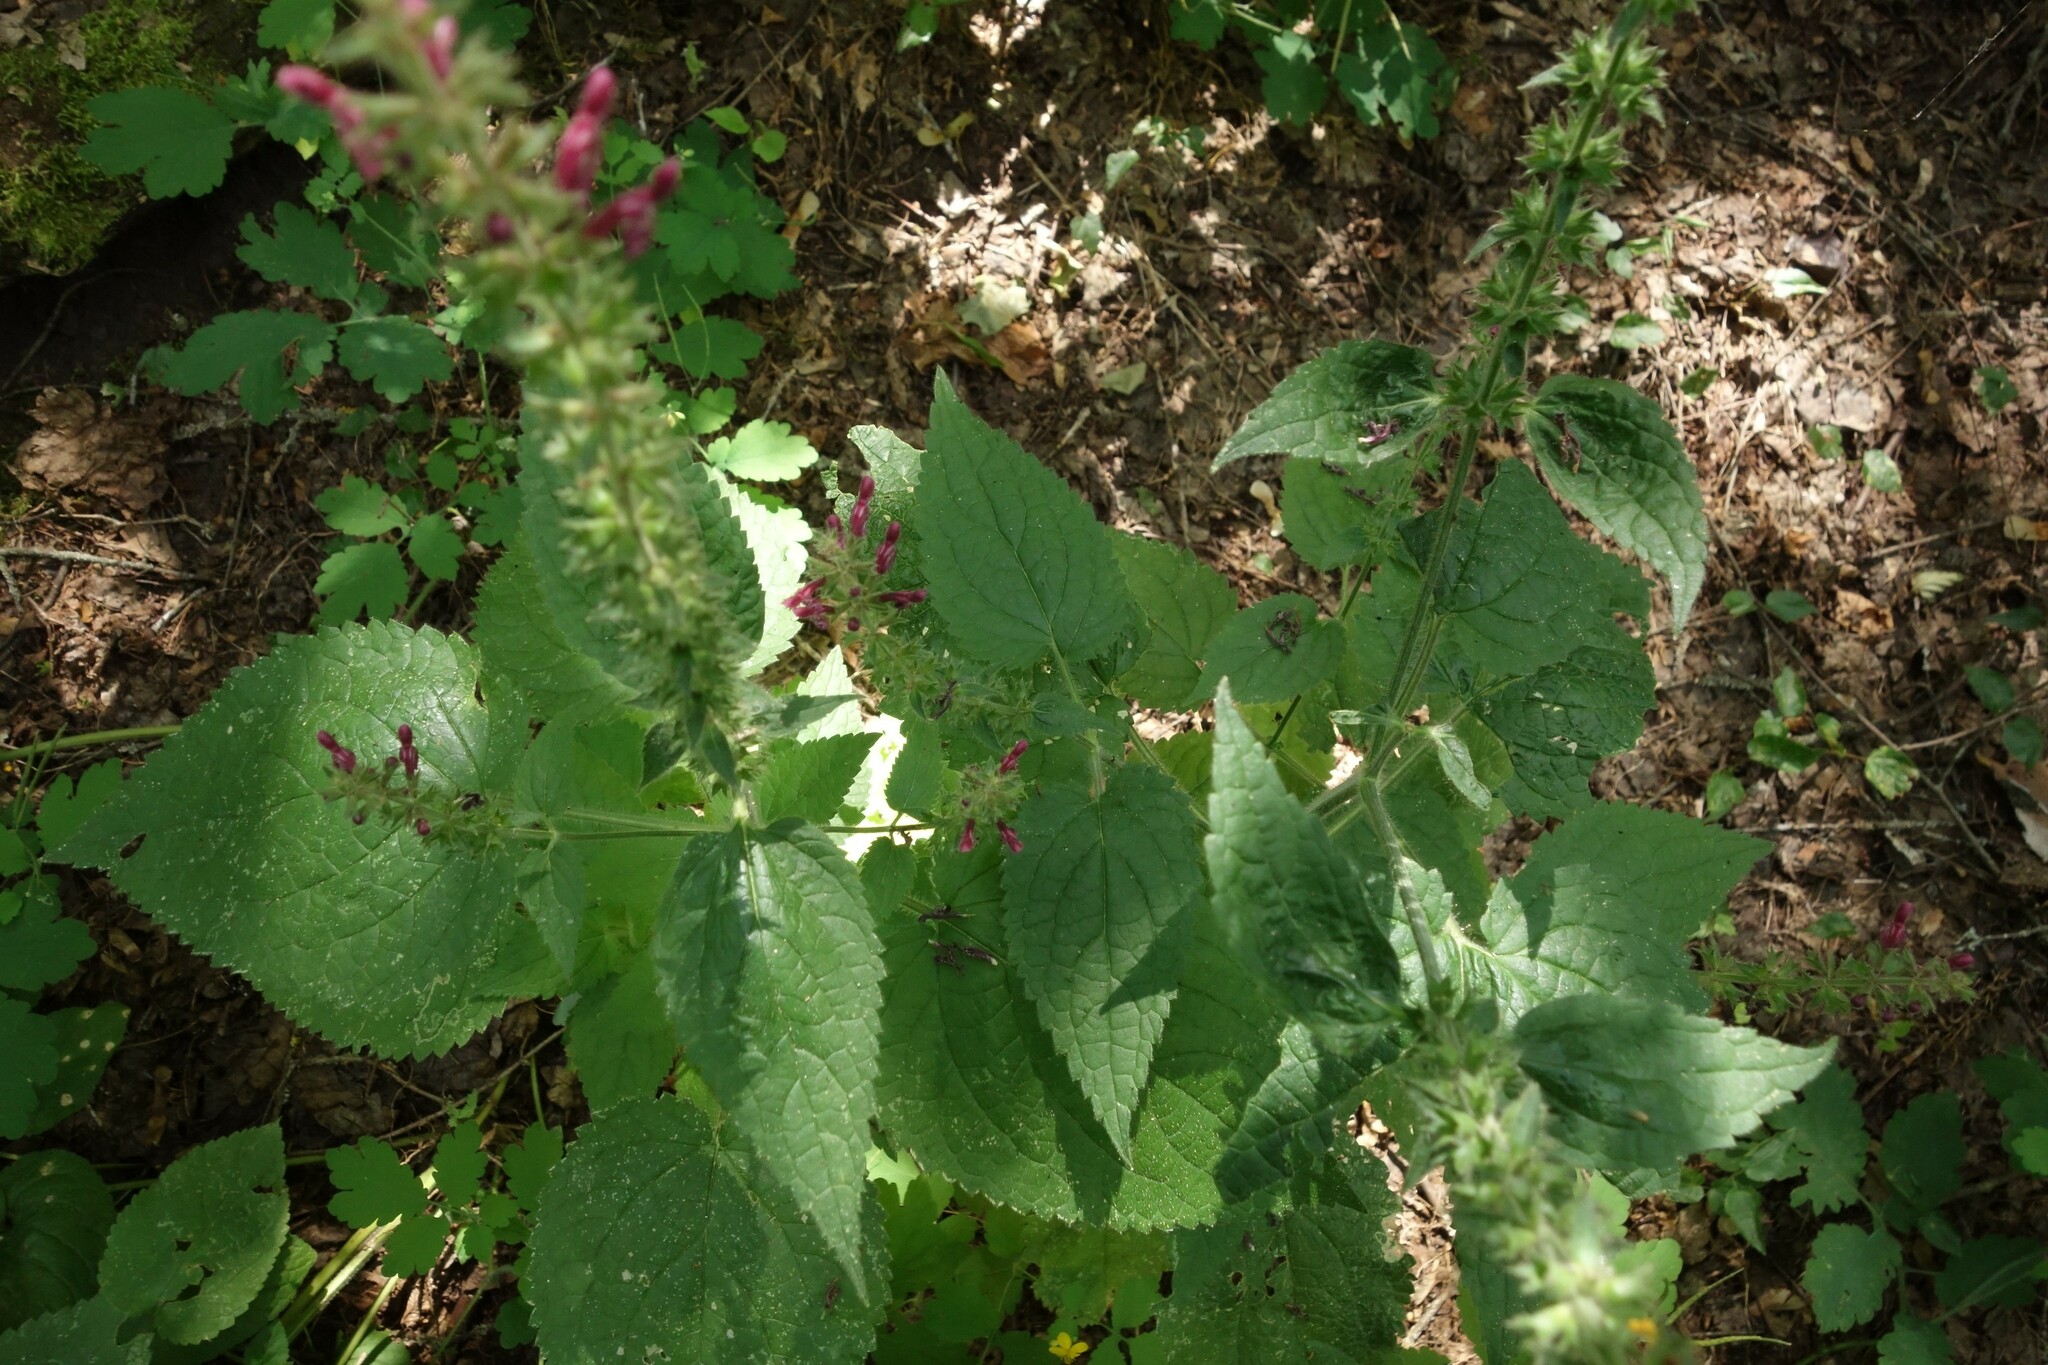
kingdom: Plantae
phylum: Tracheophyta
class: Magnoliopsida
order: Lamiales
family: Lamiaceae
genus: Stachys
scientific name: Stachys sylvatica
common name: Hedge woundwort
